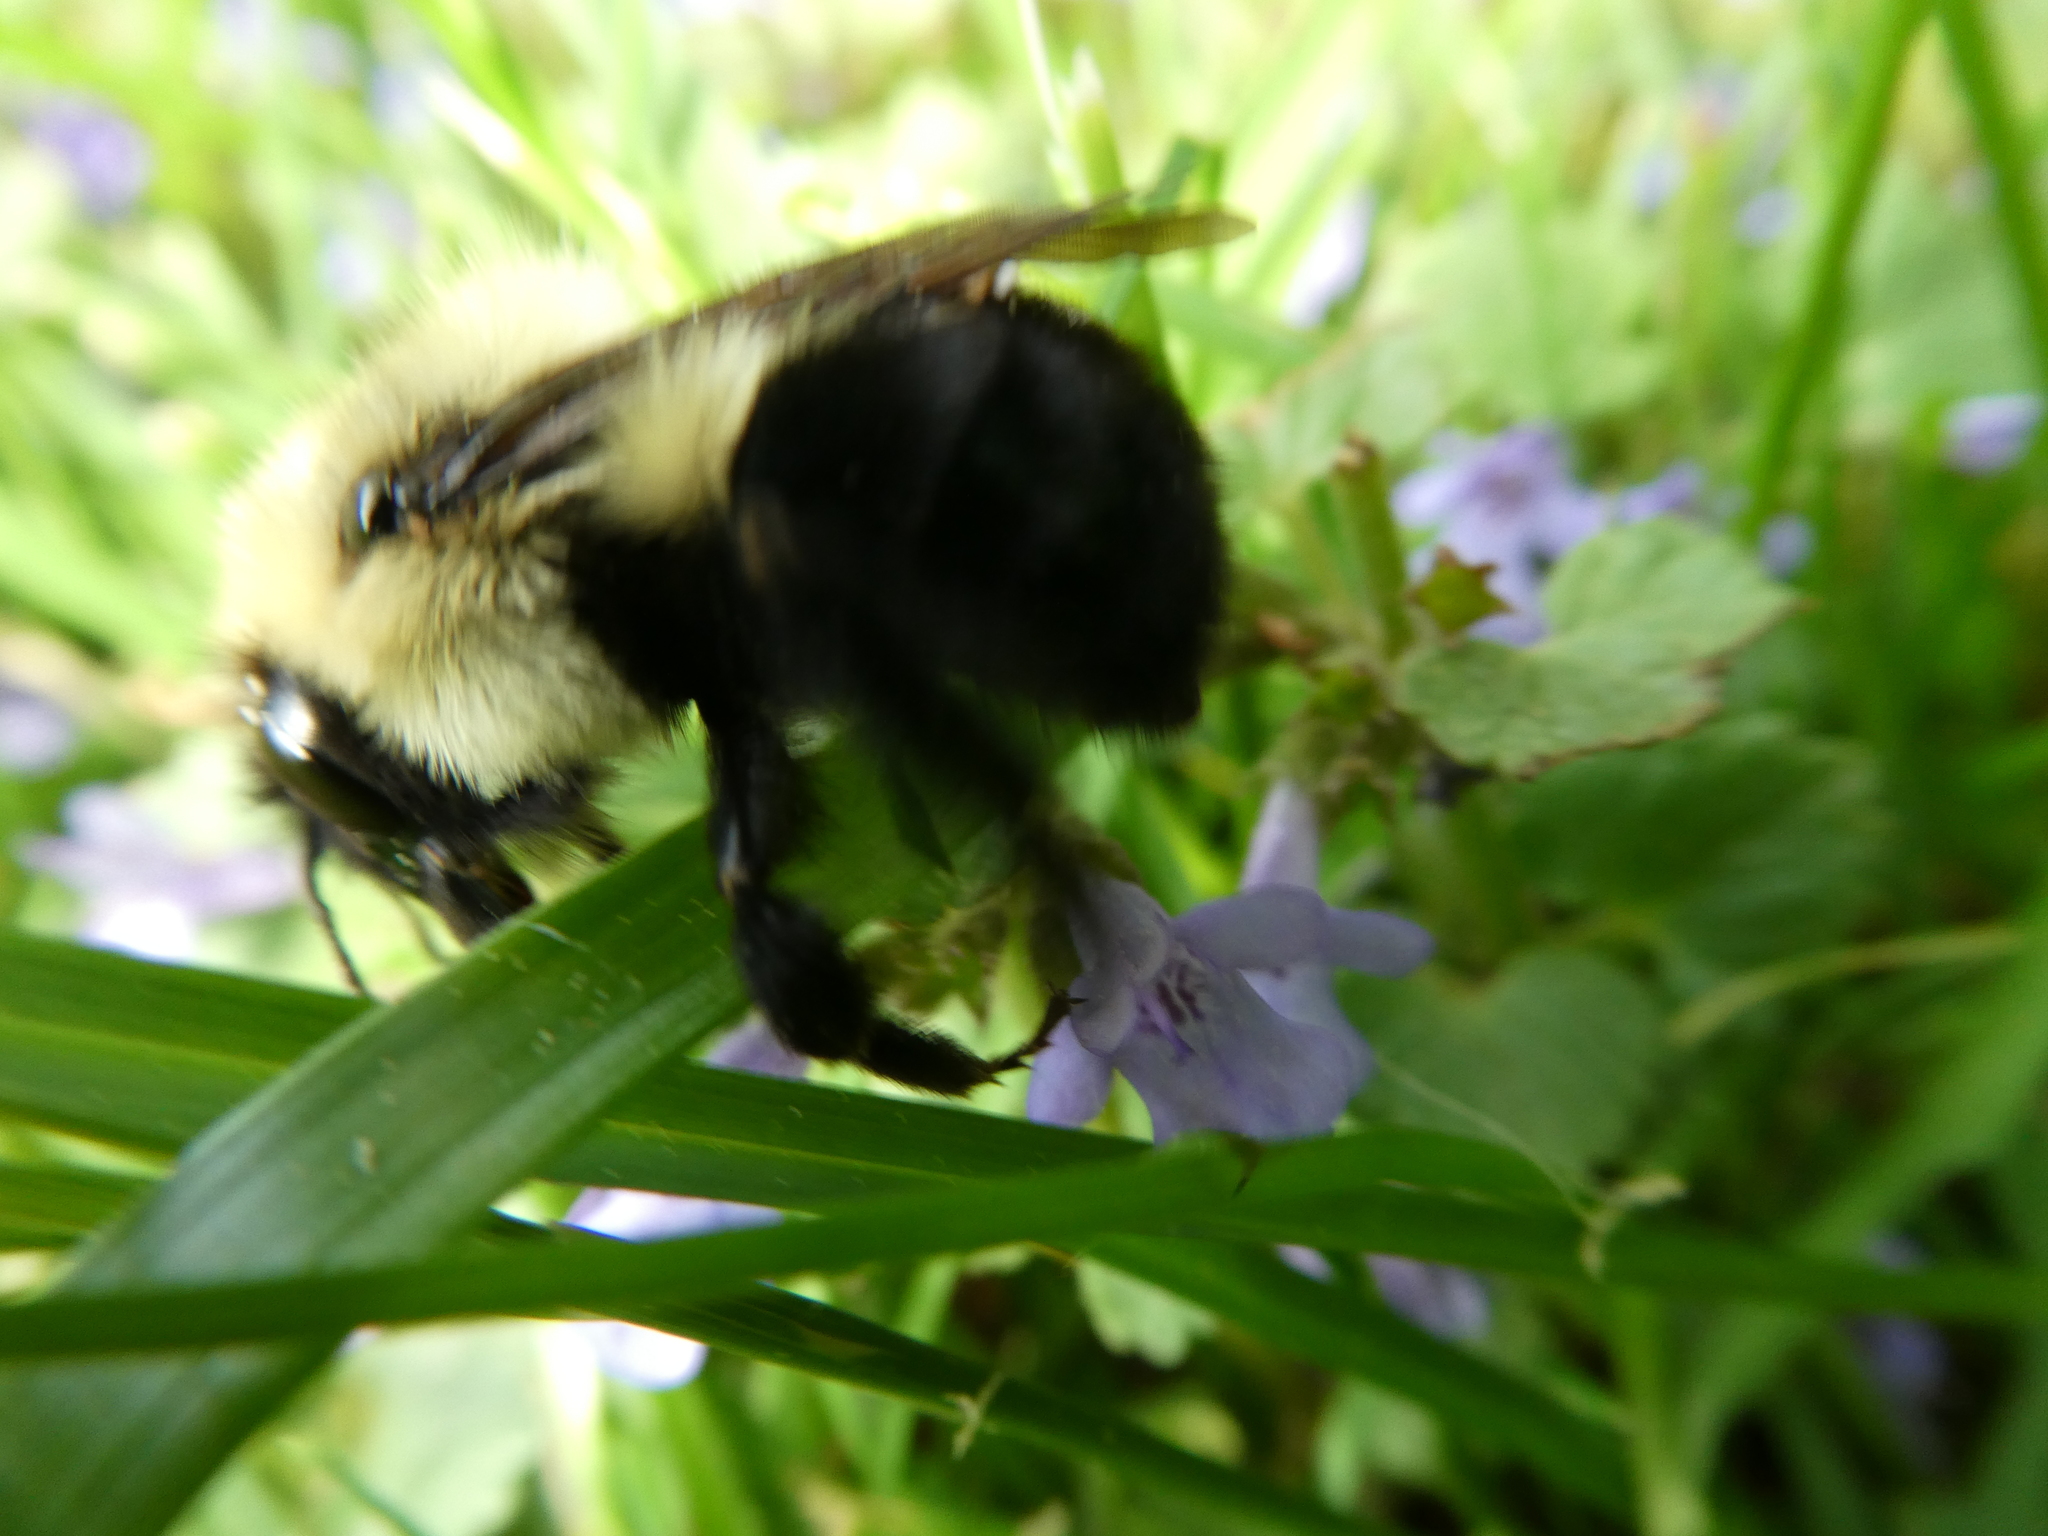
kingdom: Animalia
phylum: Arthropoda
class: Insecta
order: Hymenoptera
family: Apidae
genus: Bombus
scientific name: Bombus bimaculatus
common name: Two-spotted bumble bee
